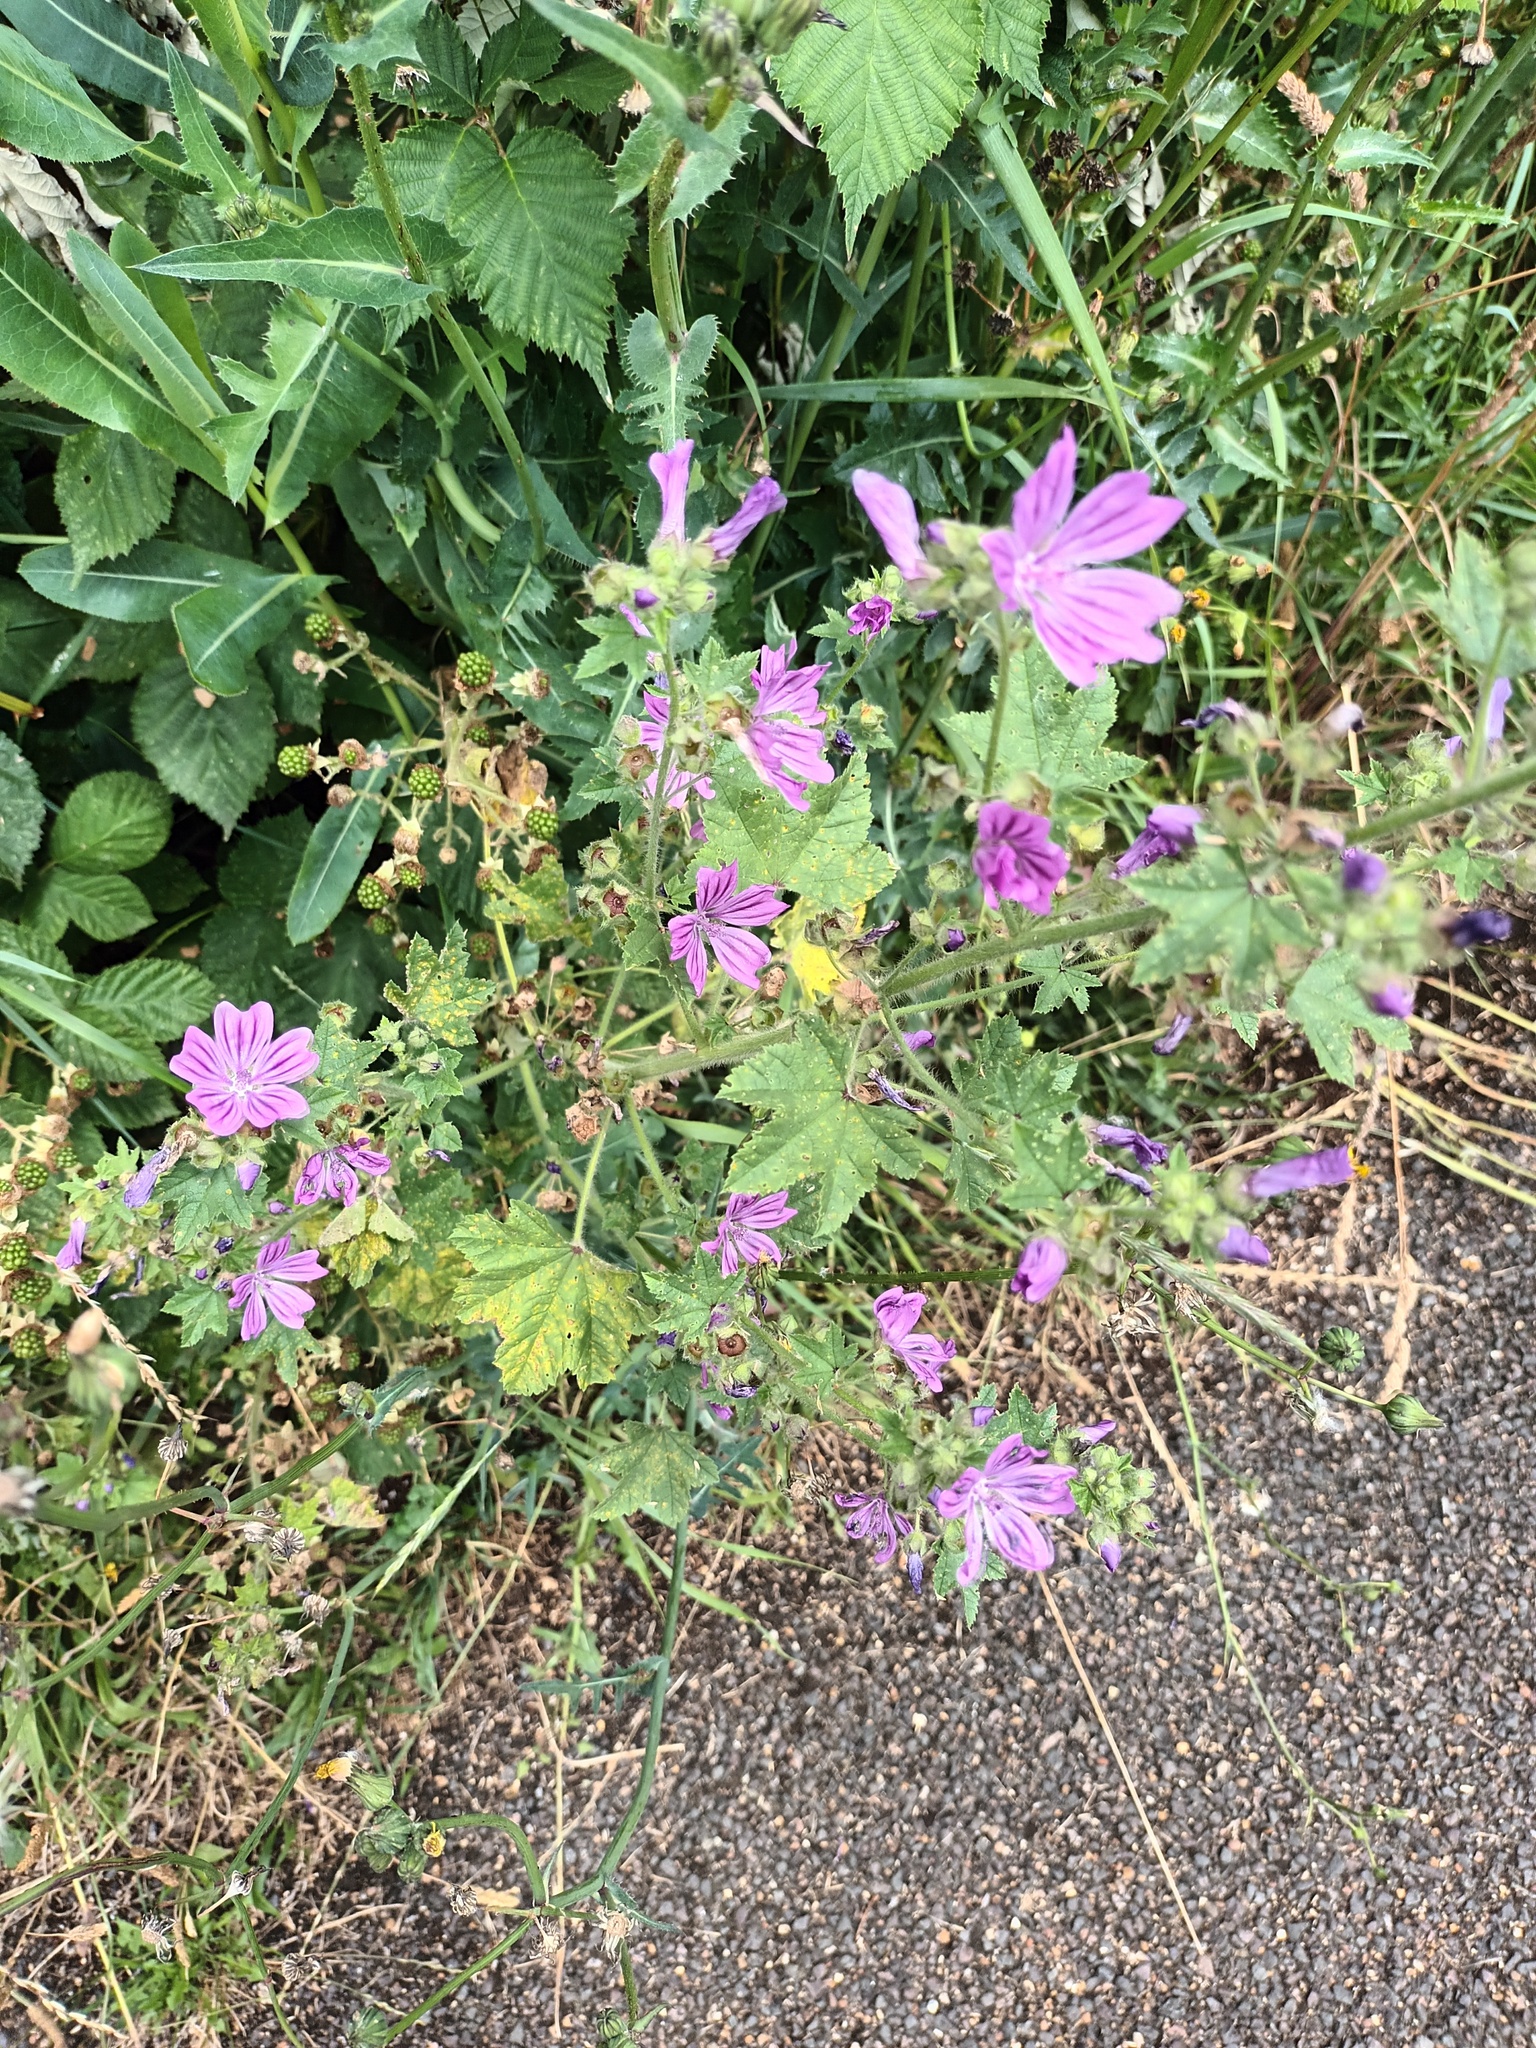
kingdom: Plantae
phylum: Tracheophyta
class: Magnoliopsida
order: Malvales
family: Malvaceae
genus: Malva
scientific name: Malva sylvestris
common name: Common mallow
